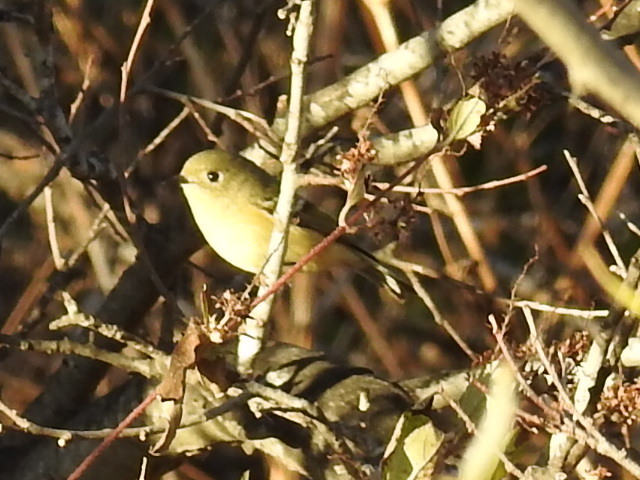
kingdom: Animalia
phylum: Chordata
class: Aves
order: Passeriformes
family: Regulidae
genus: Regulus
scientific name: Regulus calendula
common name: Ruby-crowned kinglet
